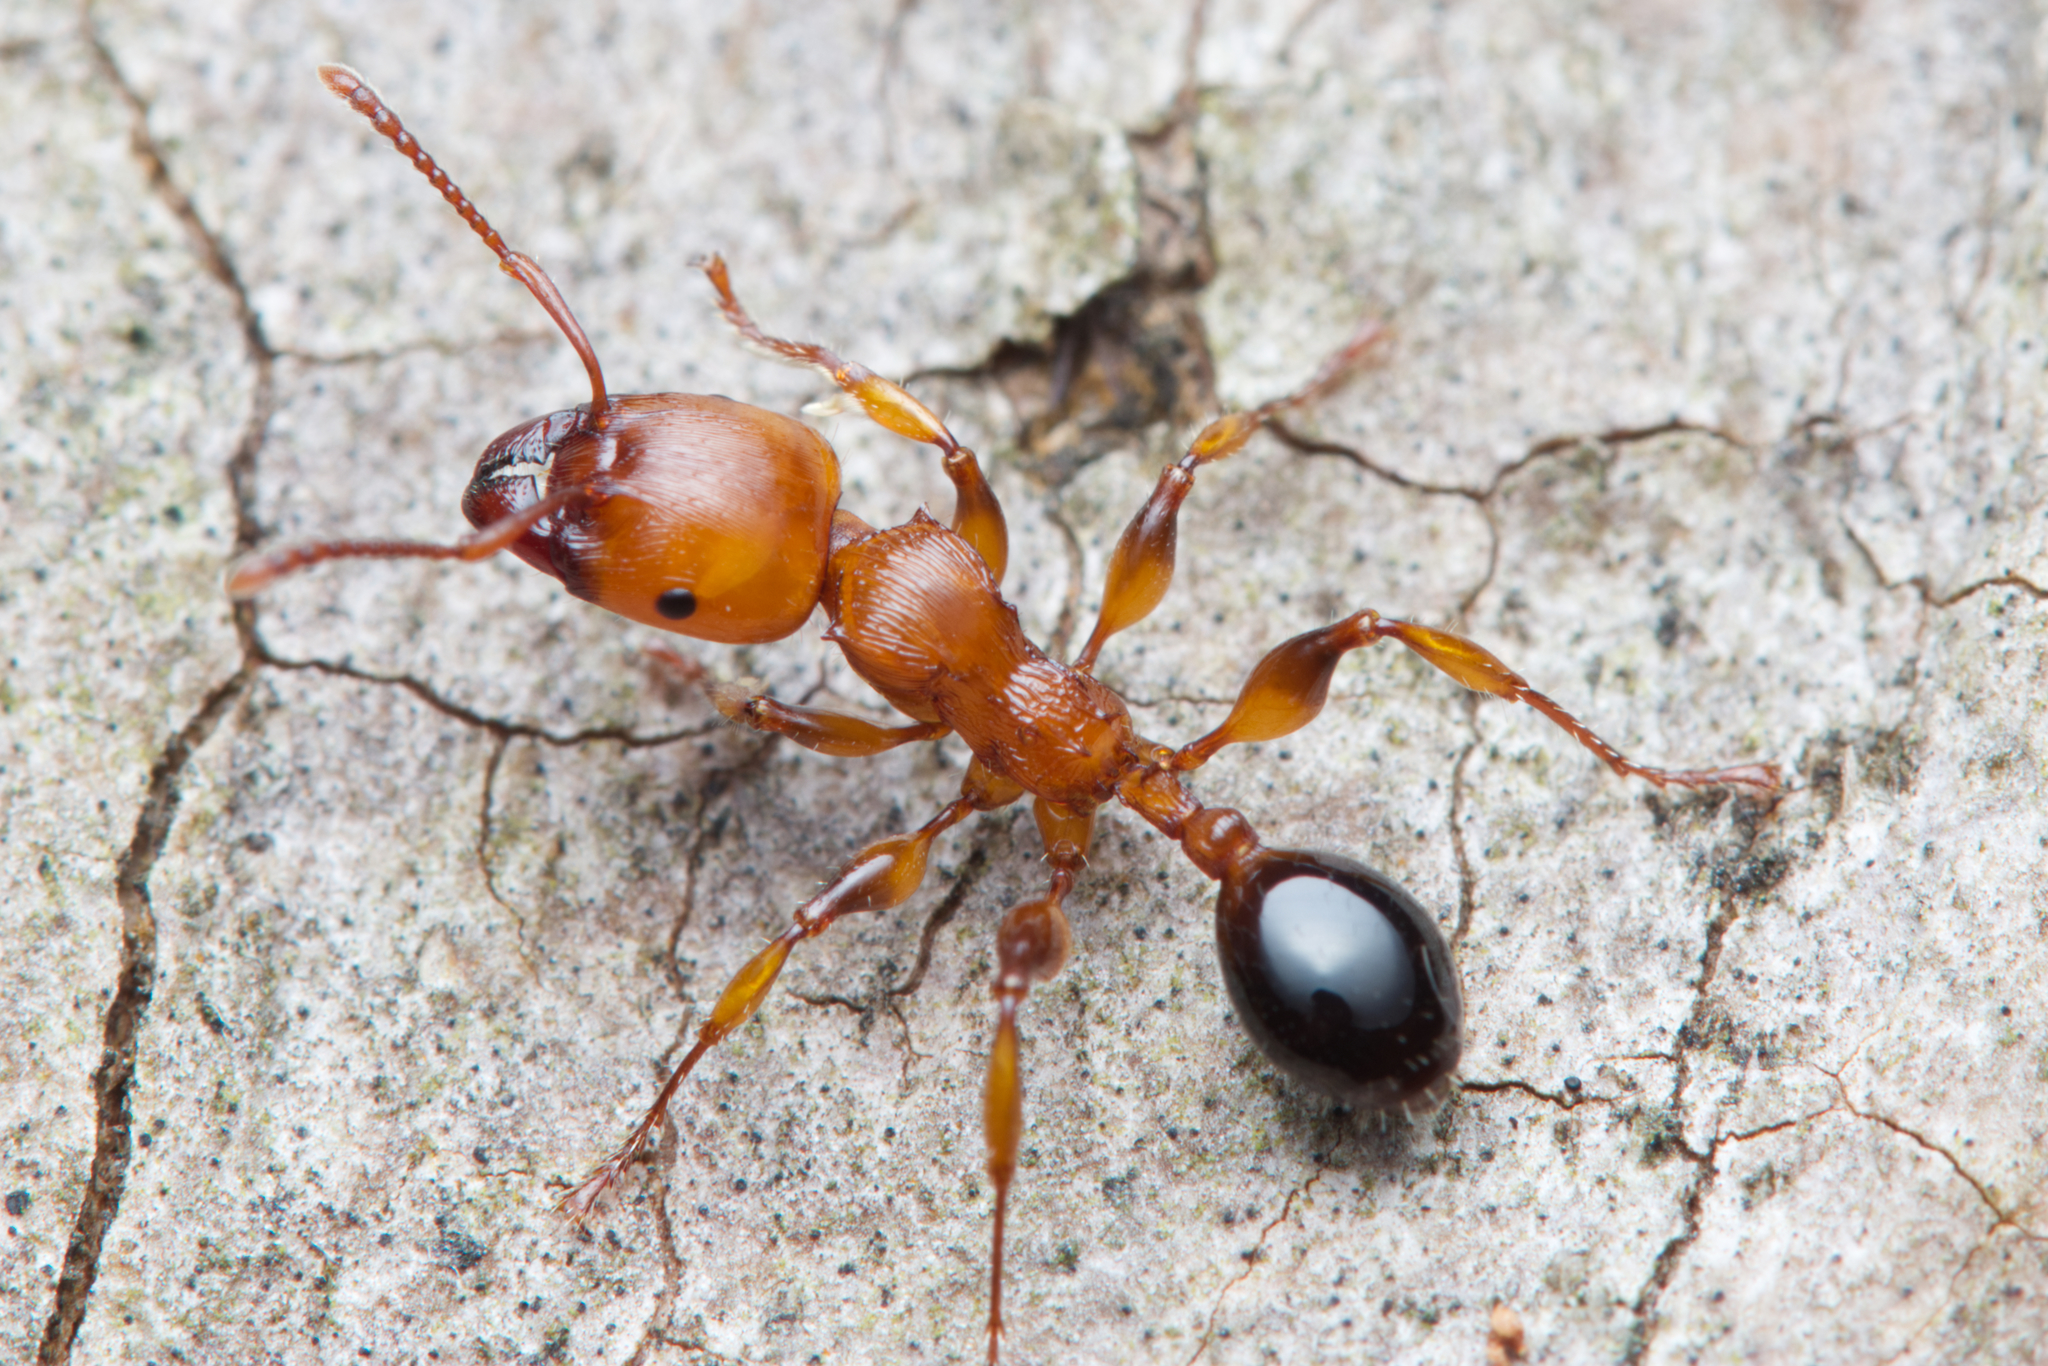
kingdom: Animalia
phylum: Arthropoda
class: Insecta
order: Hymenoptera
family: Formicidae
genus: Podomyrma
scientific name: Podomyrma gratiosa
